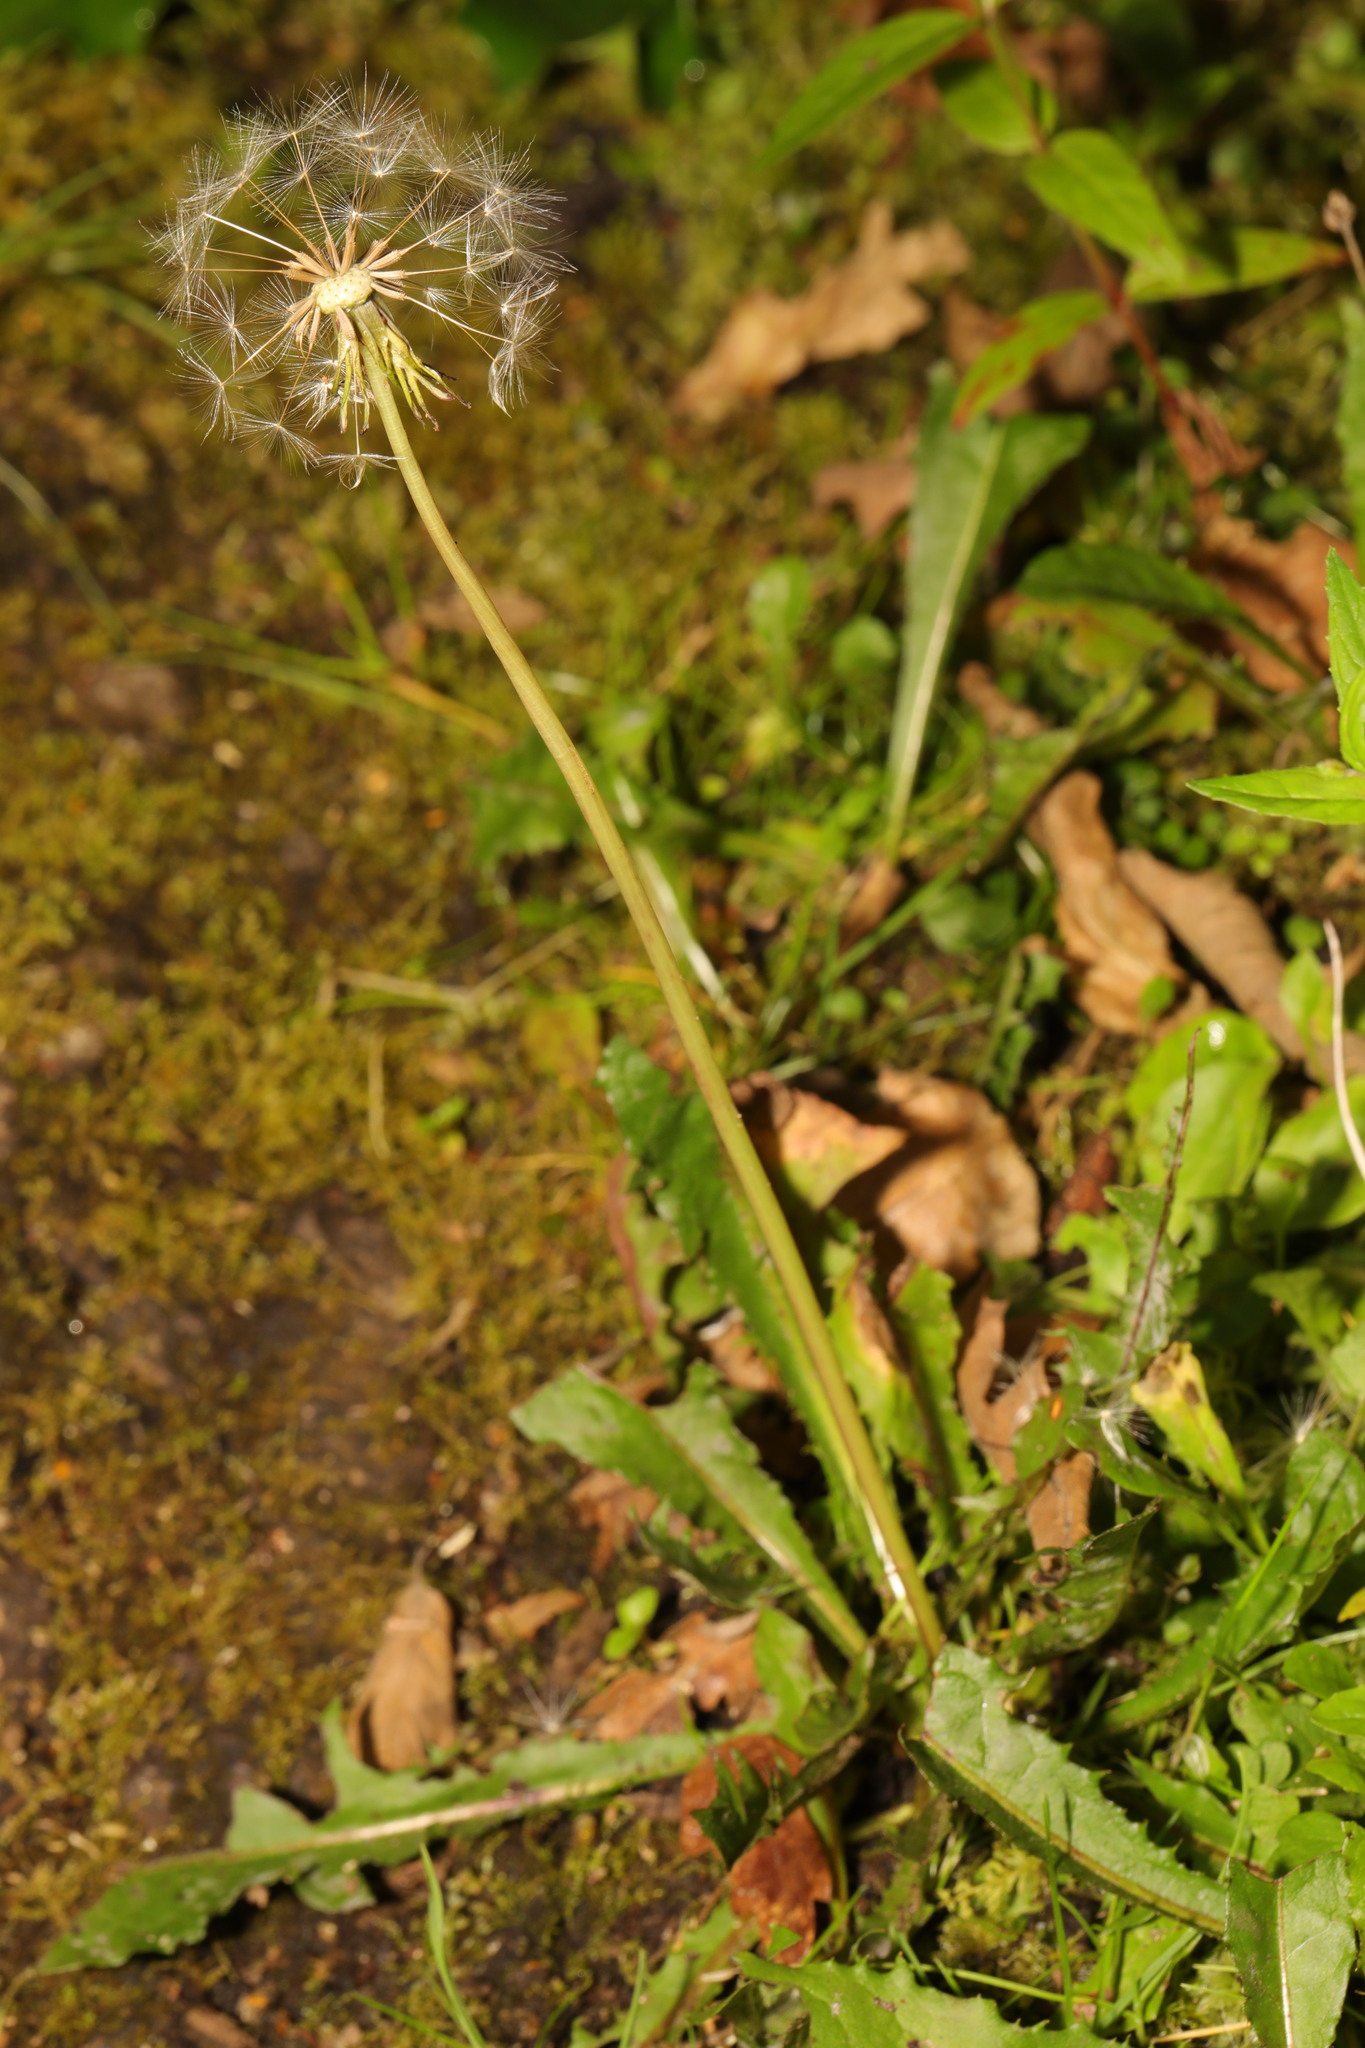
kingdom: Plantae
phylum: Tracheophyta
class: Magnoliopsida
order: Asterales
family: Asteraceae
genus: Taraxacum
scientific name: Taraxacum officinale
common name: Common dandelion
